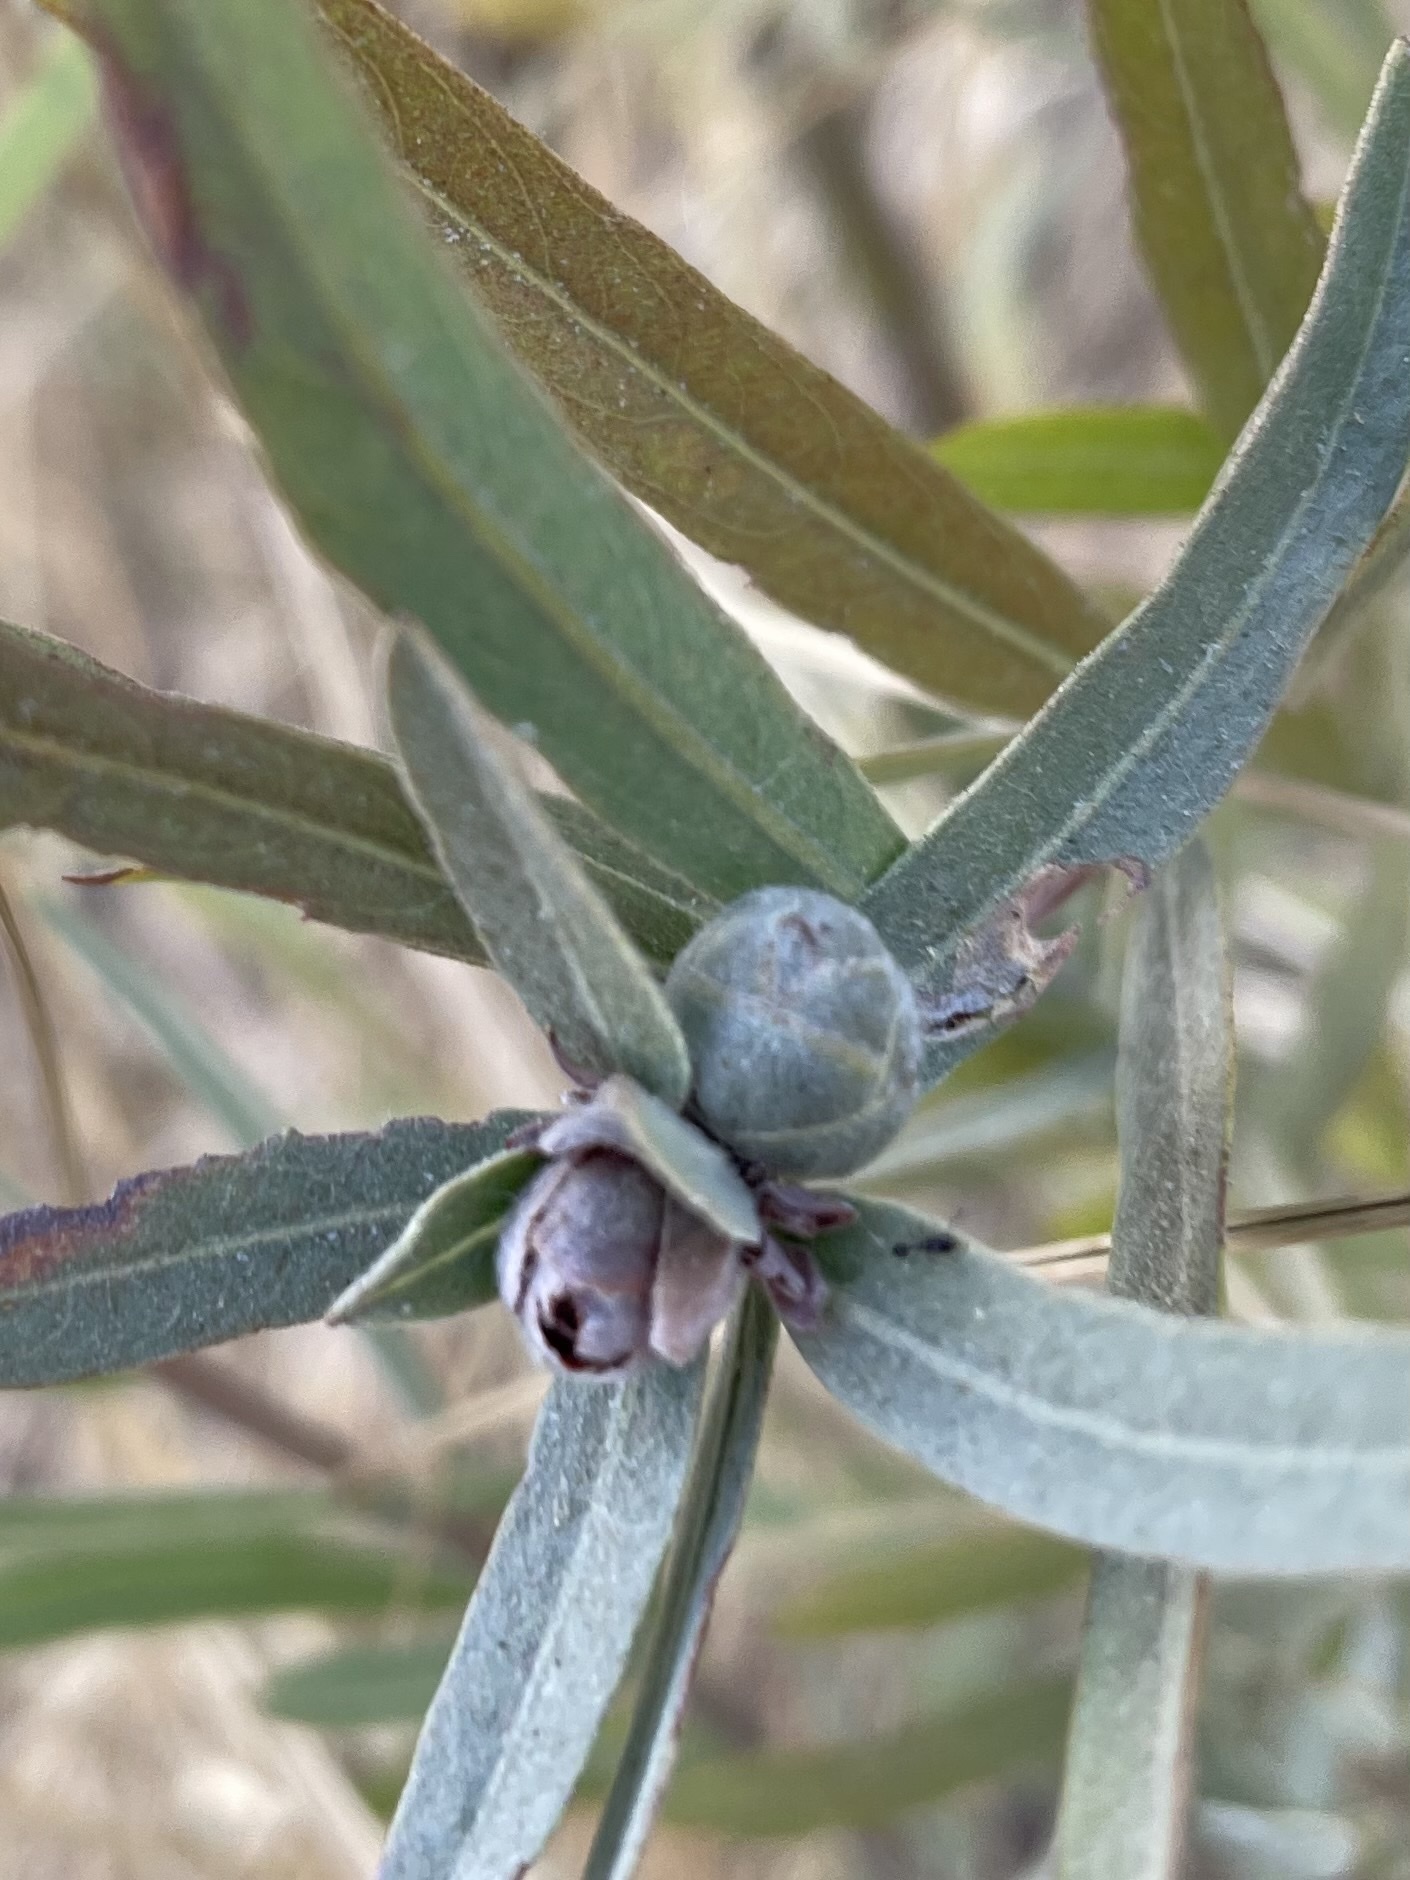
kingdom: Animalia
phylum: Arthropoda
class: Insecta
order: Diptera
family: Cecidomyiidae
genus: Rabdophaga
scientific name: Rabdophaga strobiloides
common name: Willow pinecone gall midge
